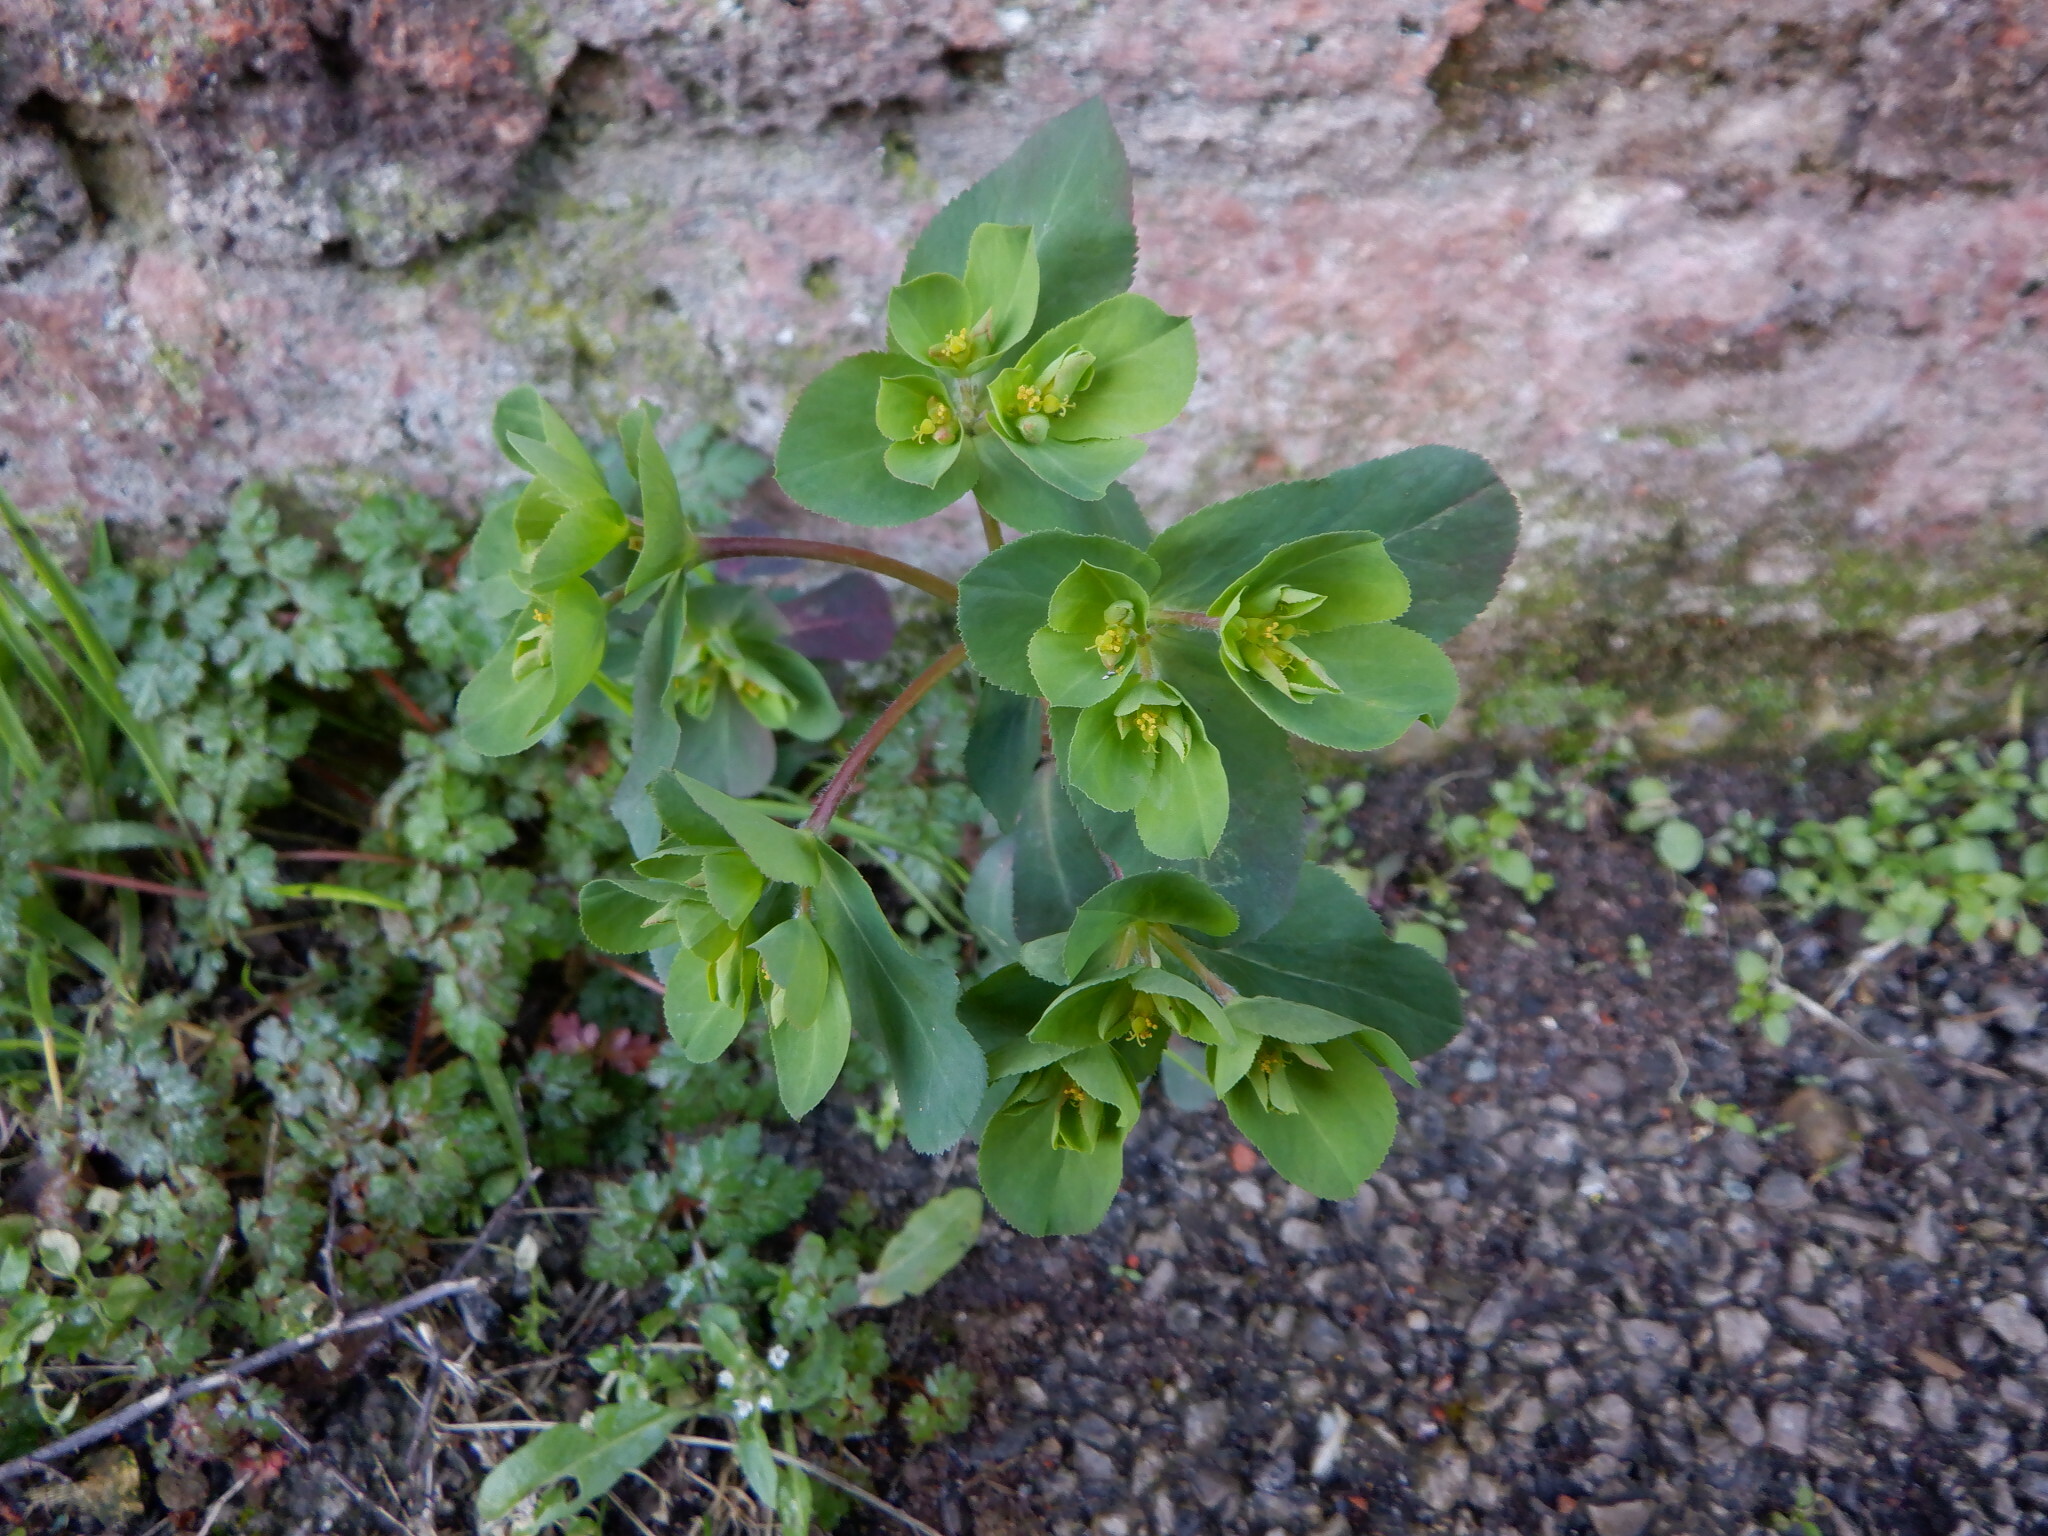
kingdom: Plantae
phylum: Tracheophyta
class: Magnoliopsida
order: Malpighiales
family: Euphorbiaceae
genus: Euphorbia
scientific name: Euphorbia helioscopia
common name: Sun spurge
